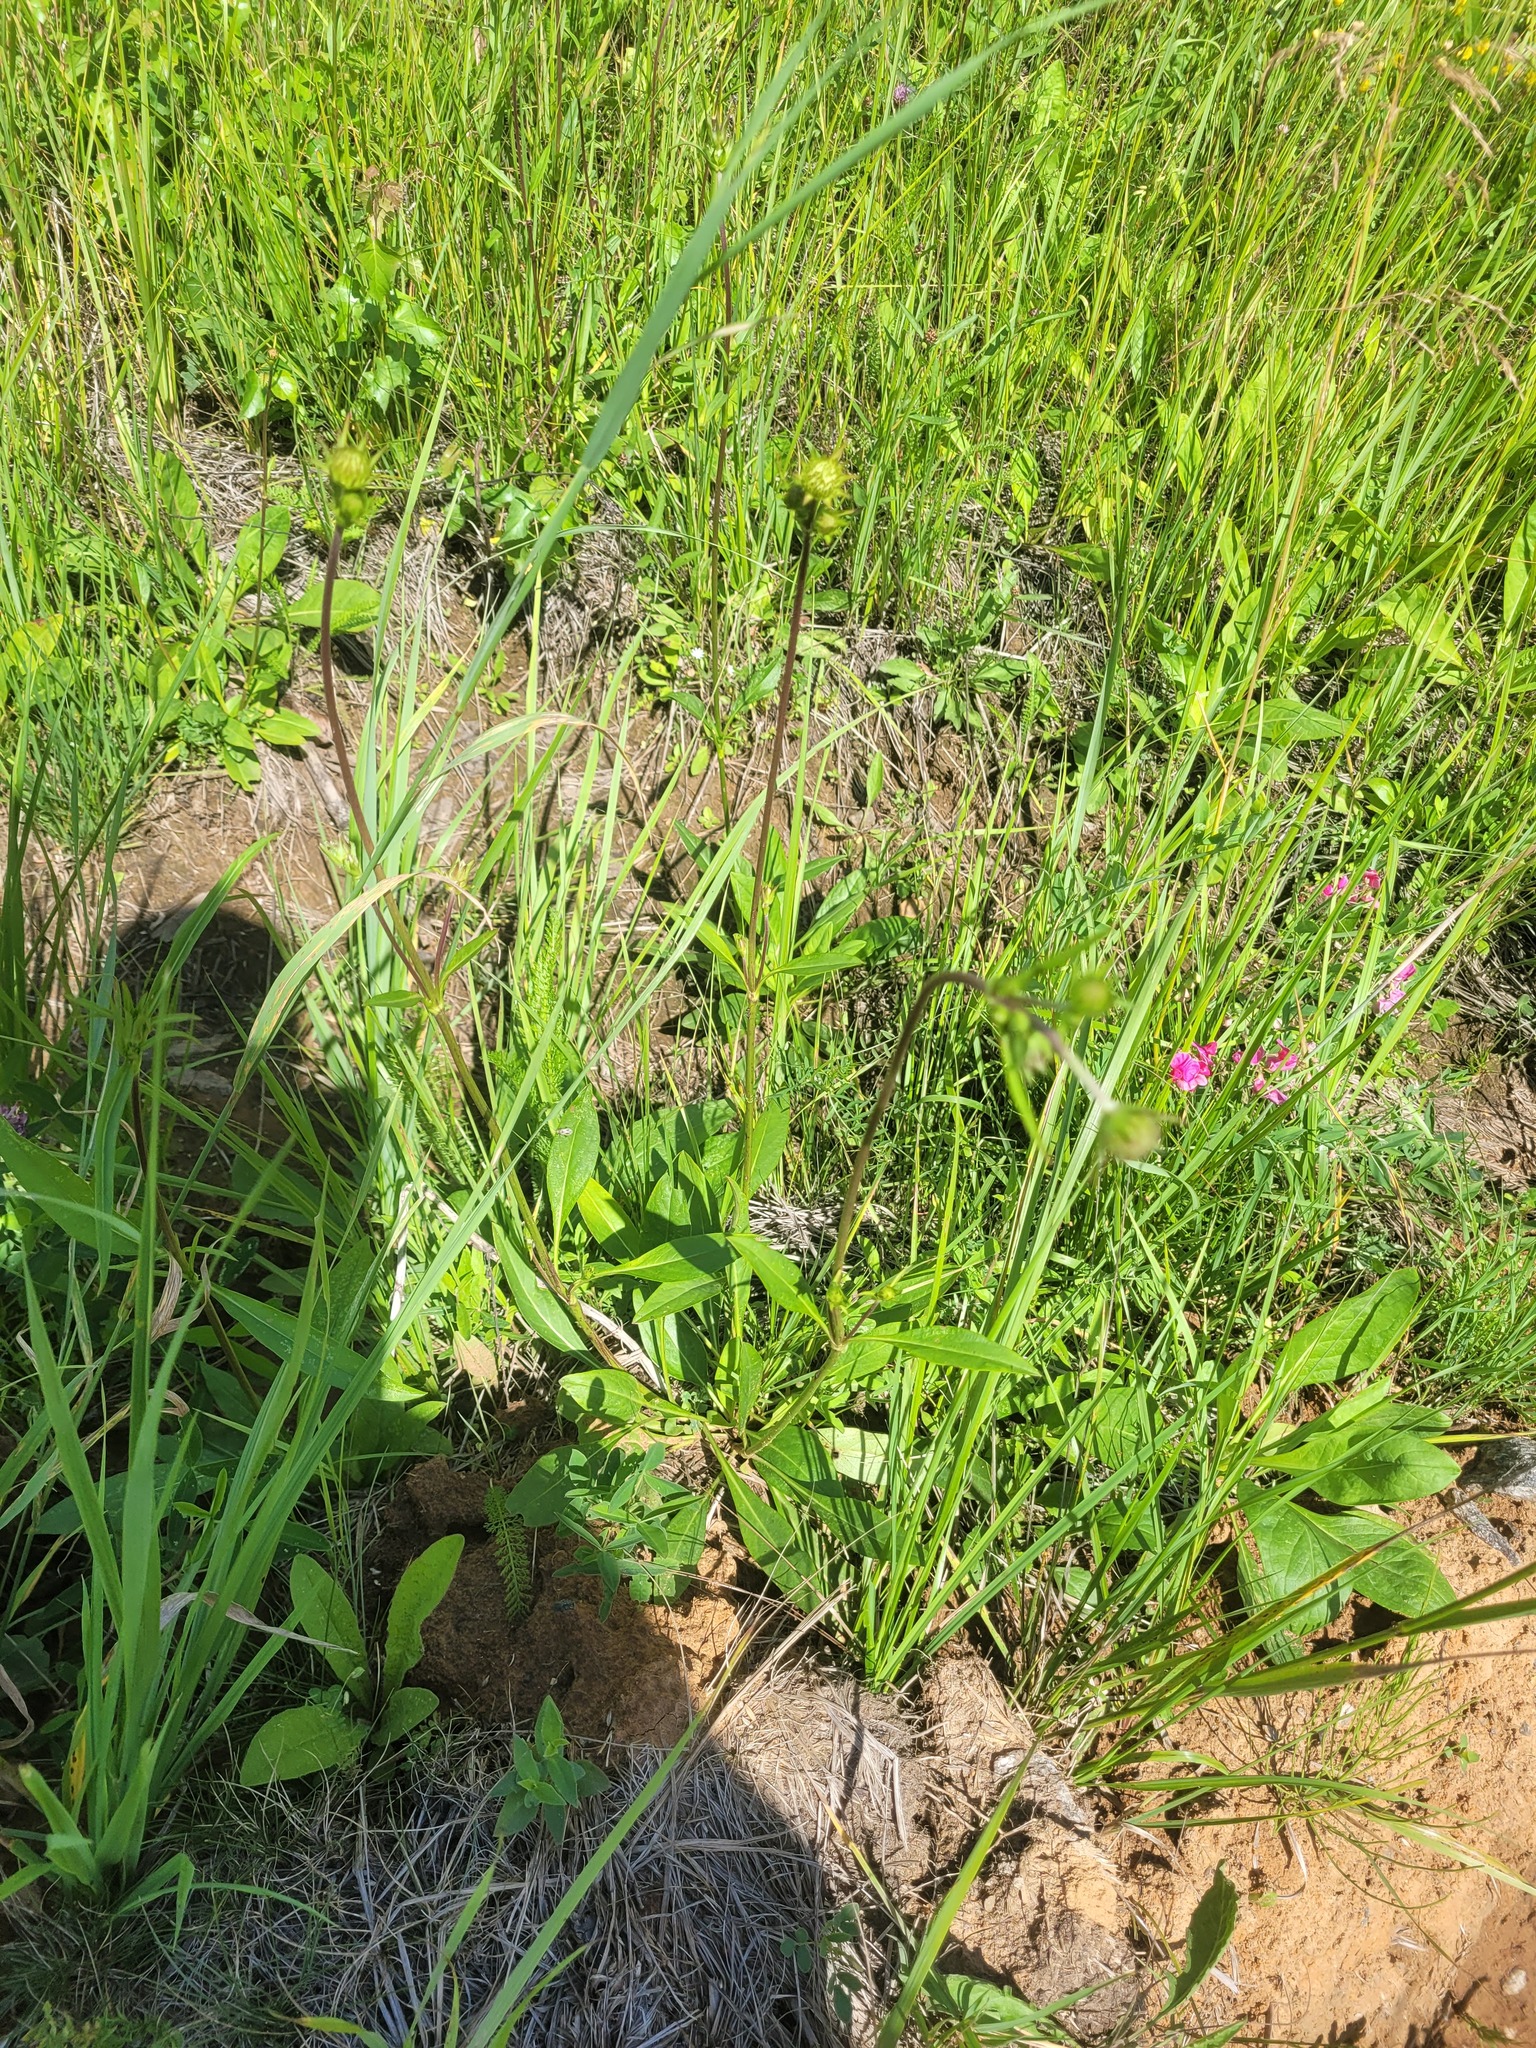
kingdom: Plantae
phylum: Tracheophyta
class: Magnoliopsida
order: Dipsacales
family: Caprifoliaceae
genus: Succisa
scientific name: Succisa pratensis
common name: Devil's-bit
